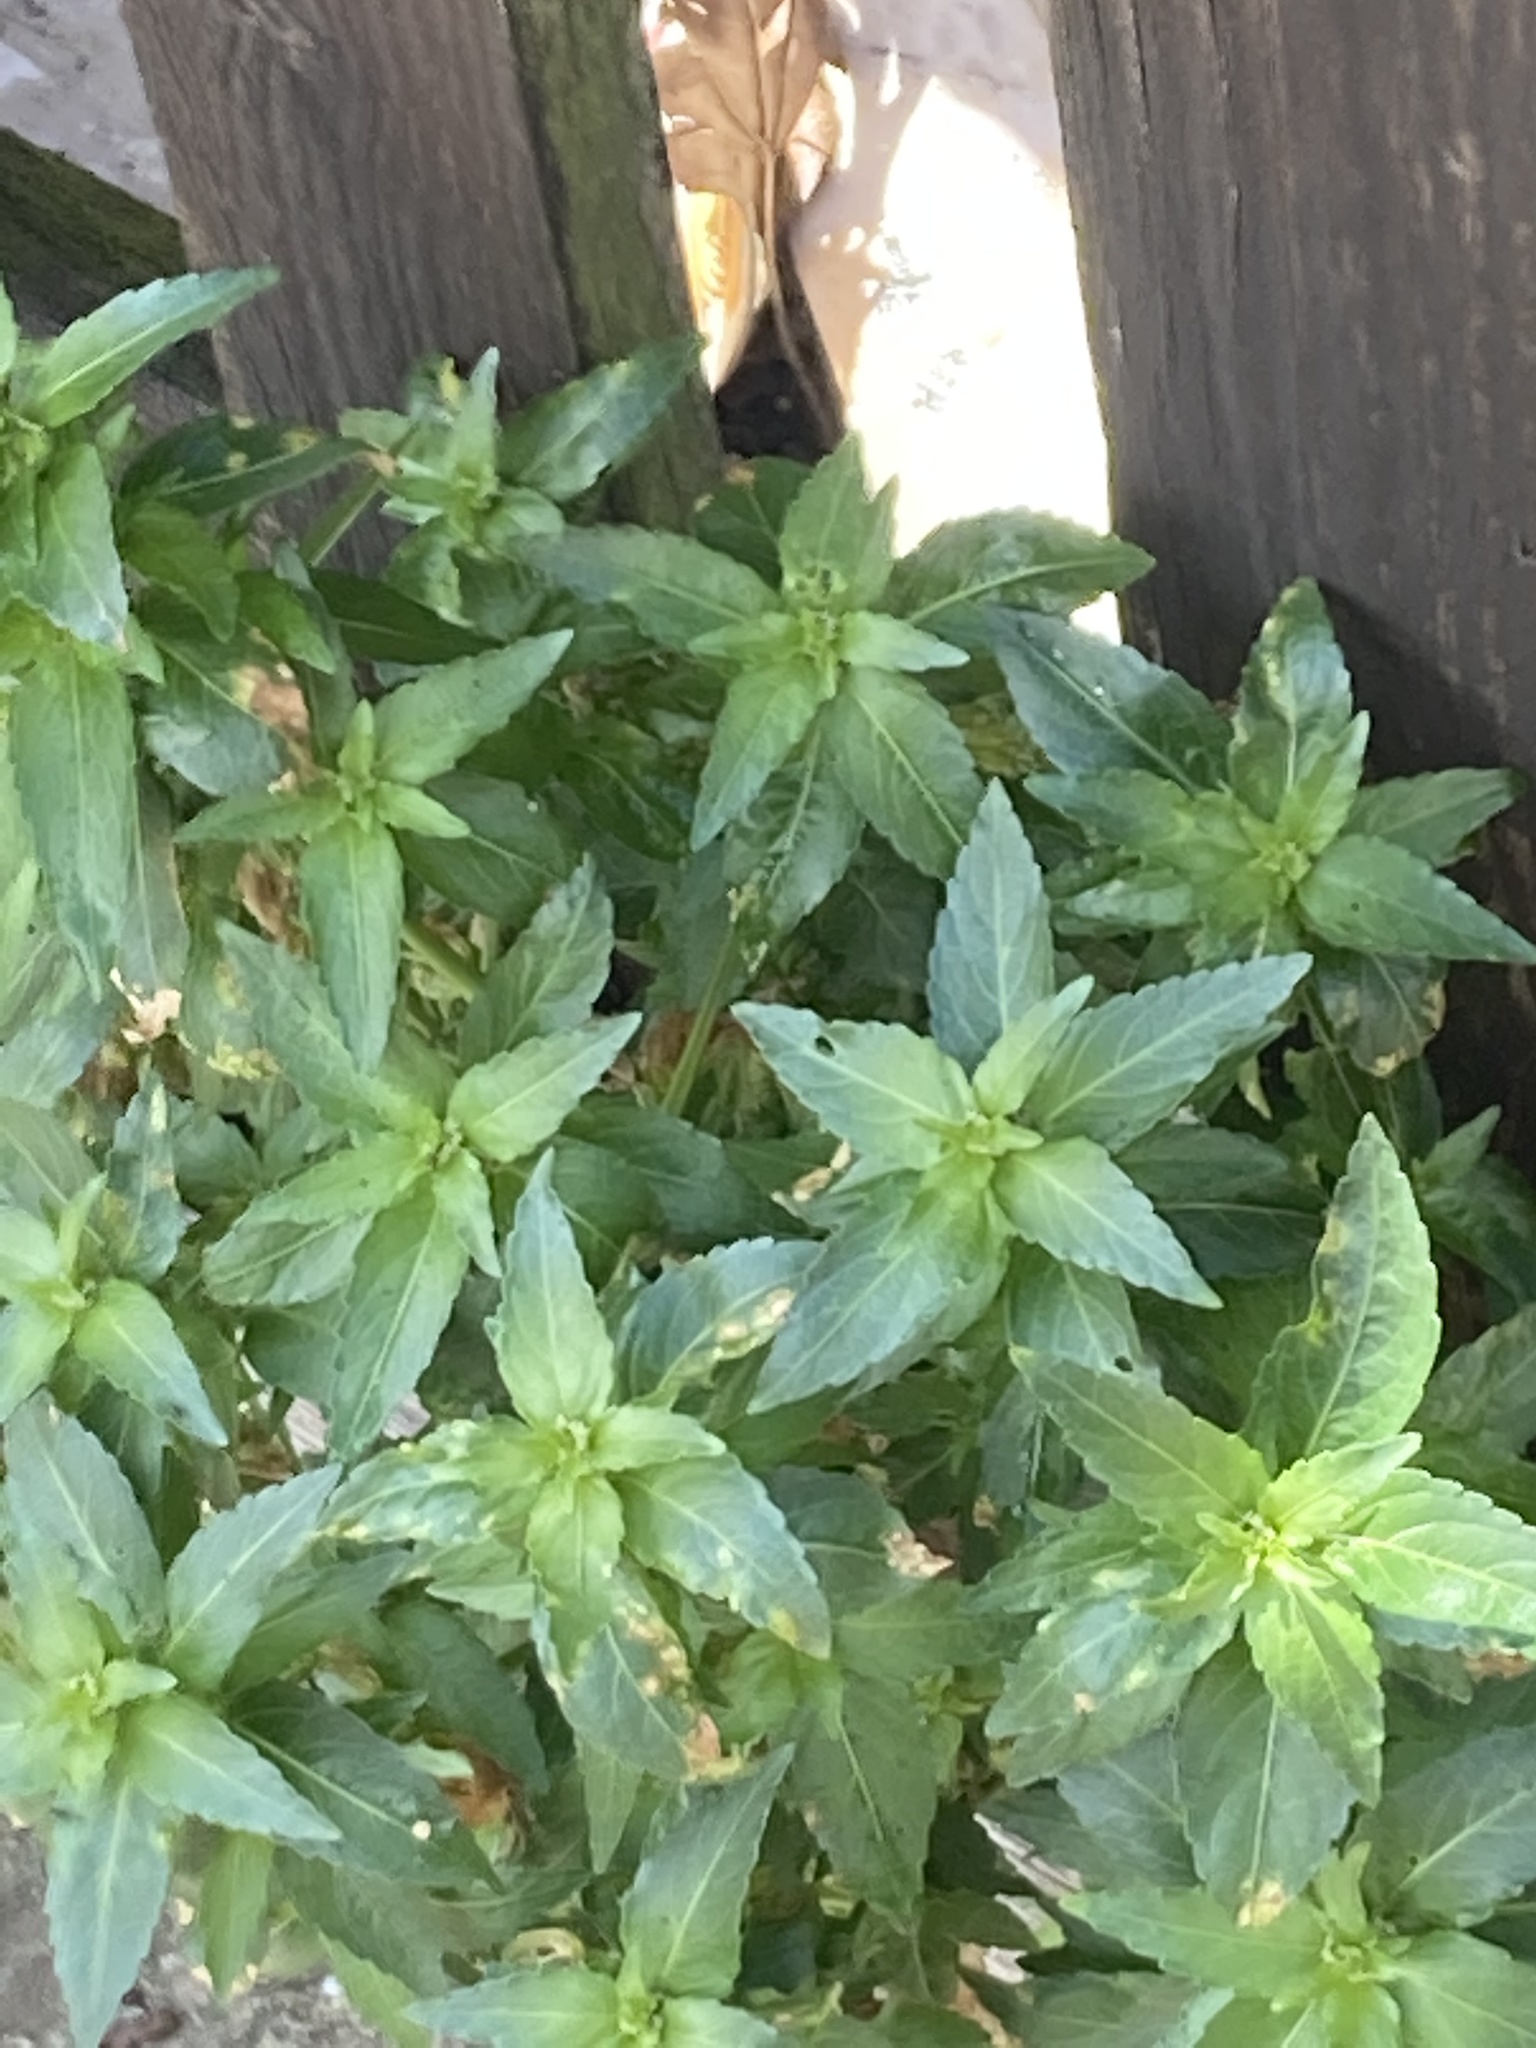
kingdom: Plantae
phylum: Tracheophyta
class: Magnoliopsida
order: Malpighiales
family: Euphorbiaceae
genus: Mercurialis
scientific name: Mercurialis annua
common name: Annual mercury
